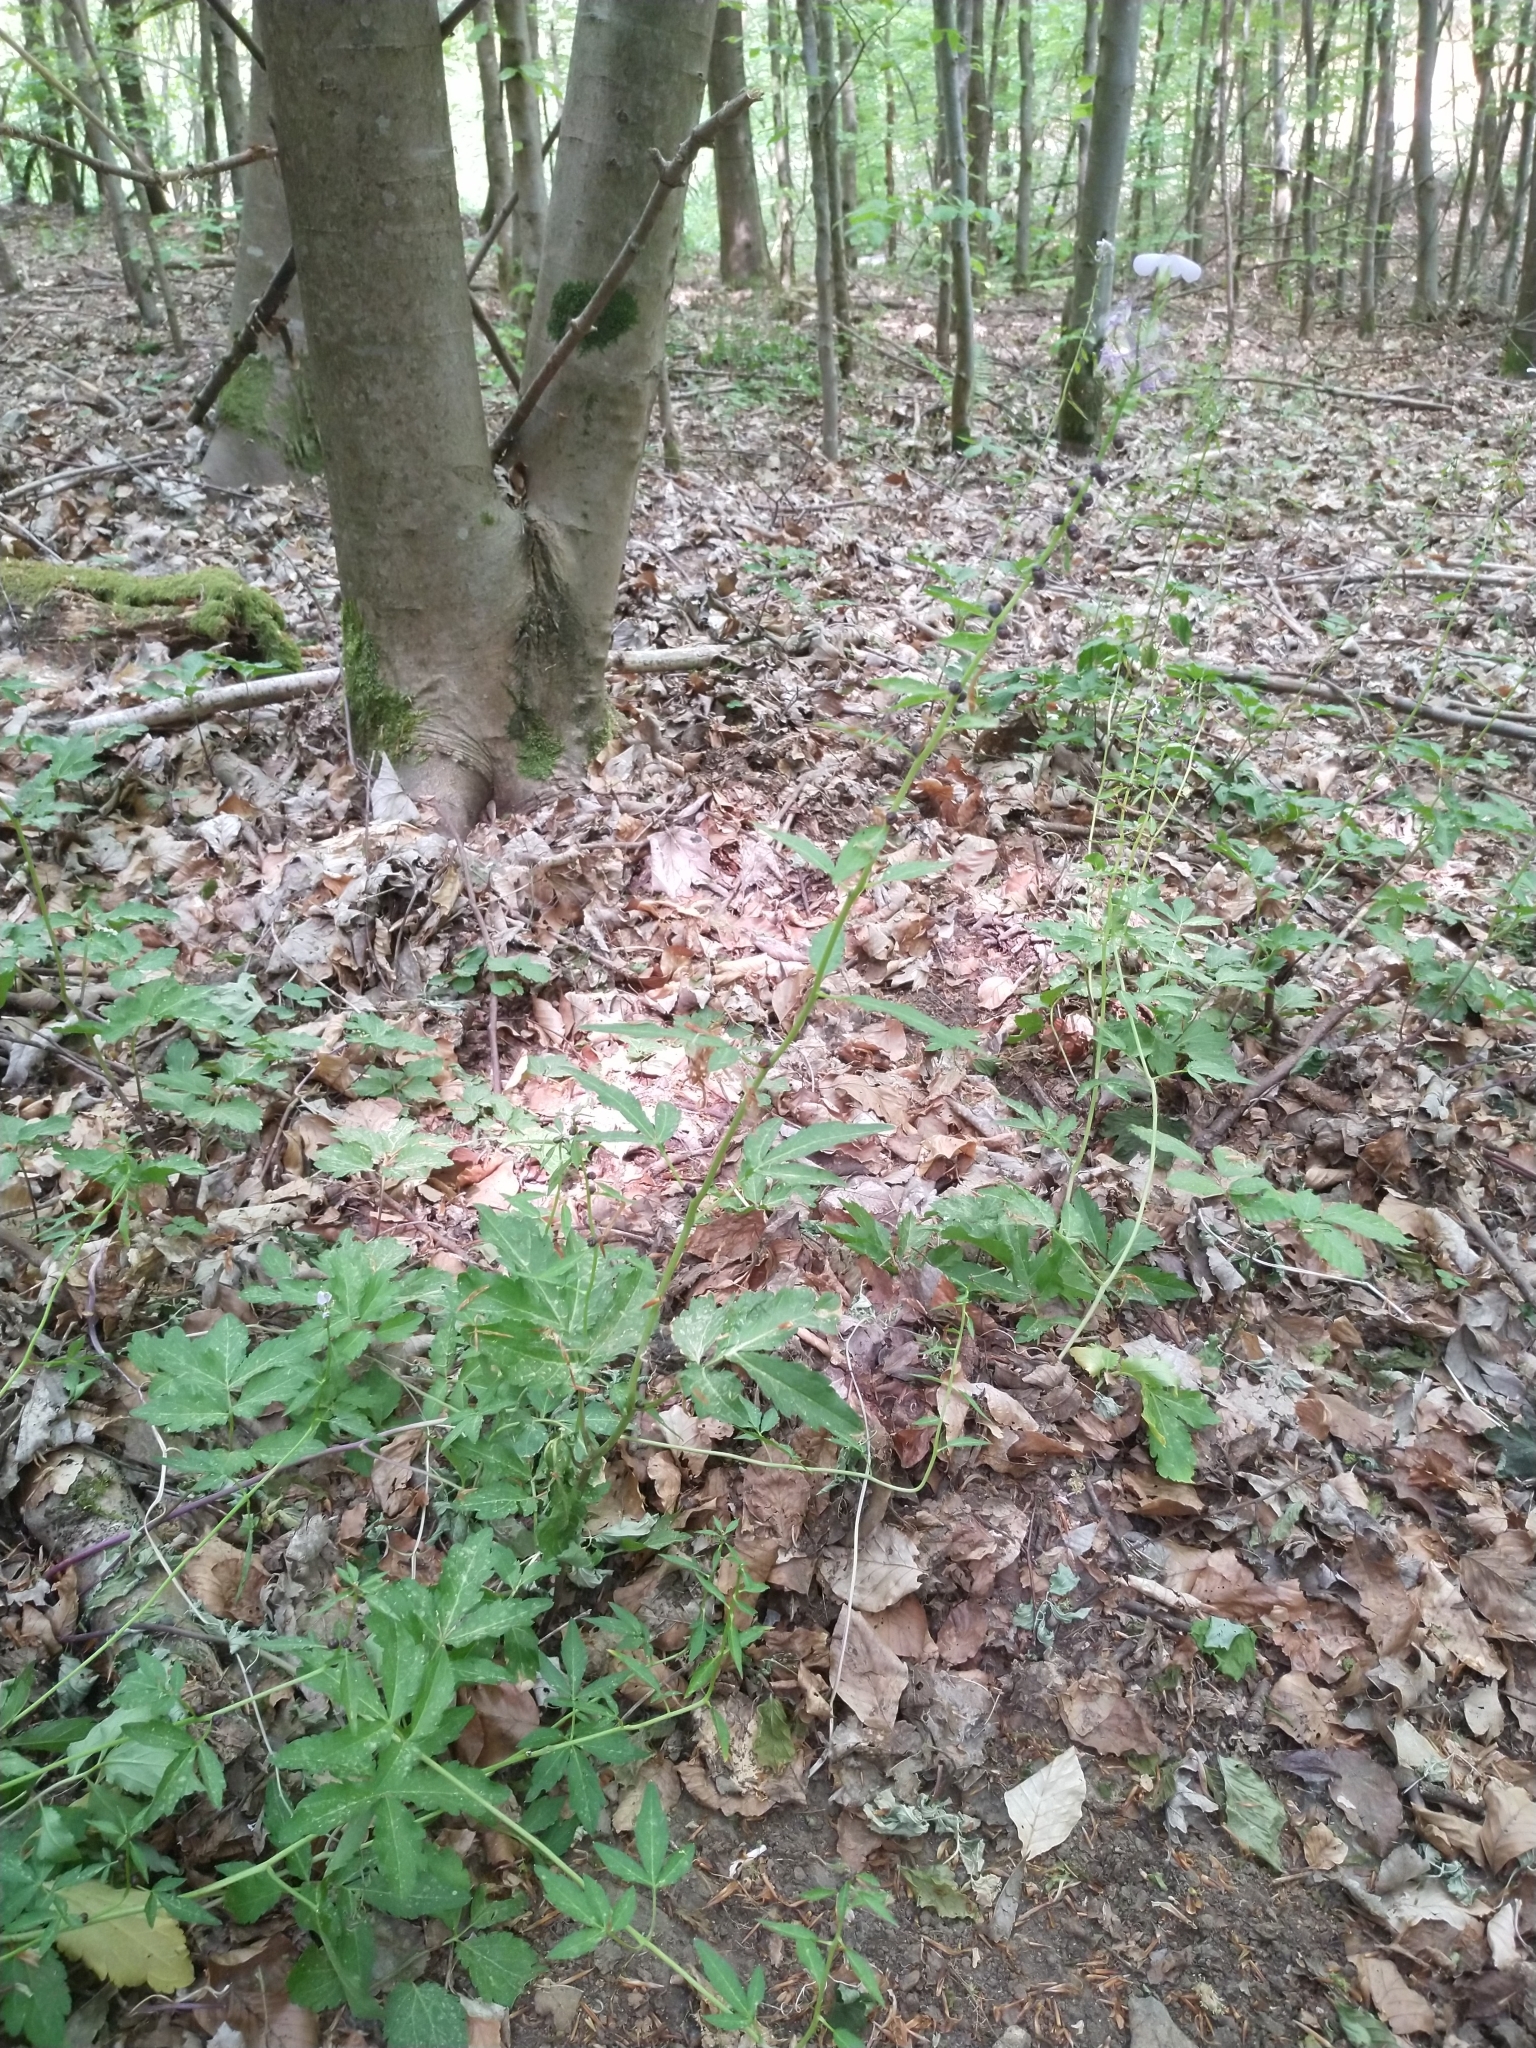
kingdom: Plantae
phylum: Tracheophyta
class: Magnoliopsida
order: Brassicales
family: Brassicaceae
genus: Cardamine
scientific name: Cardamine bulbifera
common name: Coralroot bittercress
